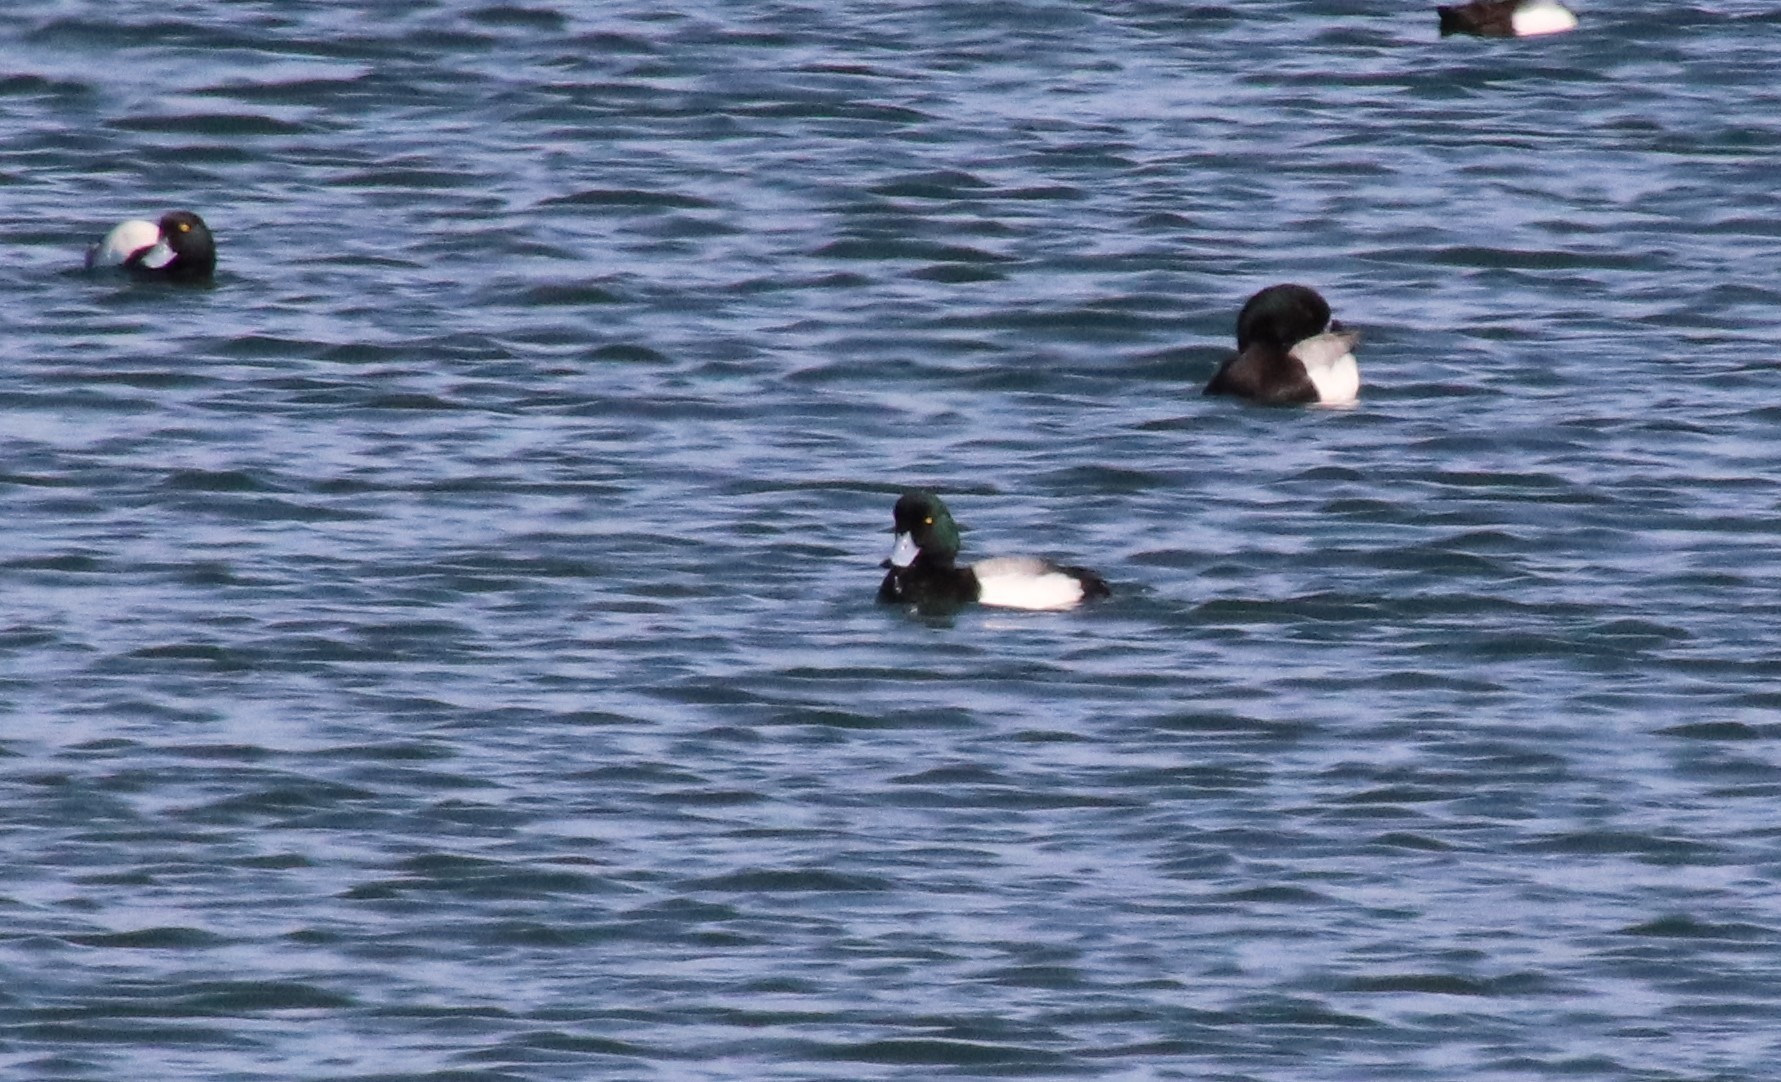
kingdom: Animalia
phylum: Chordata
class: Aves
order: Anseriformes
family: Anatidae
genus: Aythya
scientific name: Aythya marila
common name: Greater scaup
